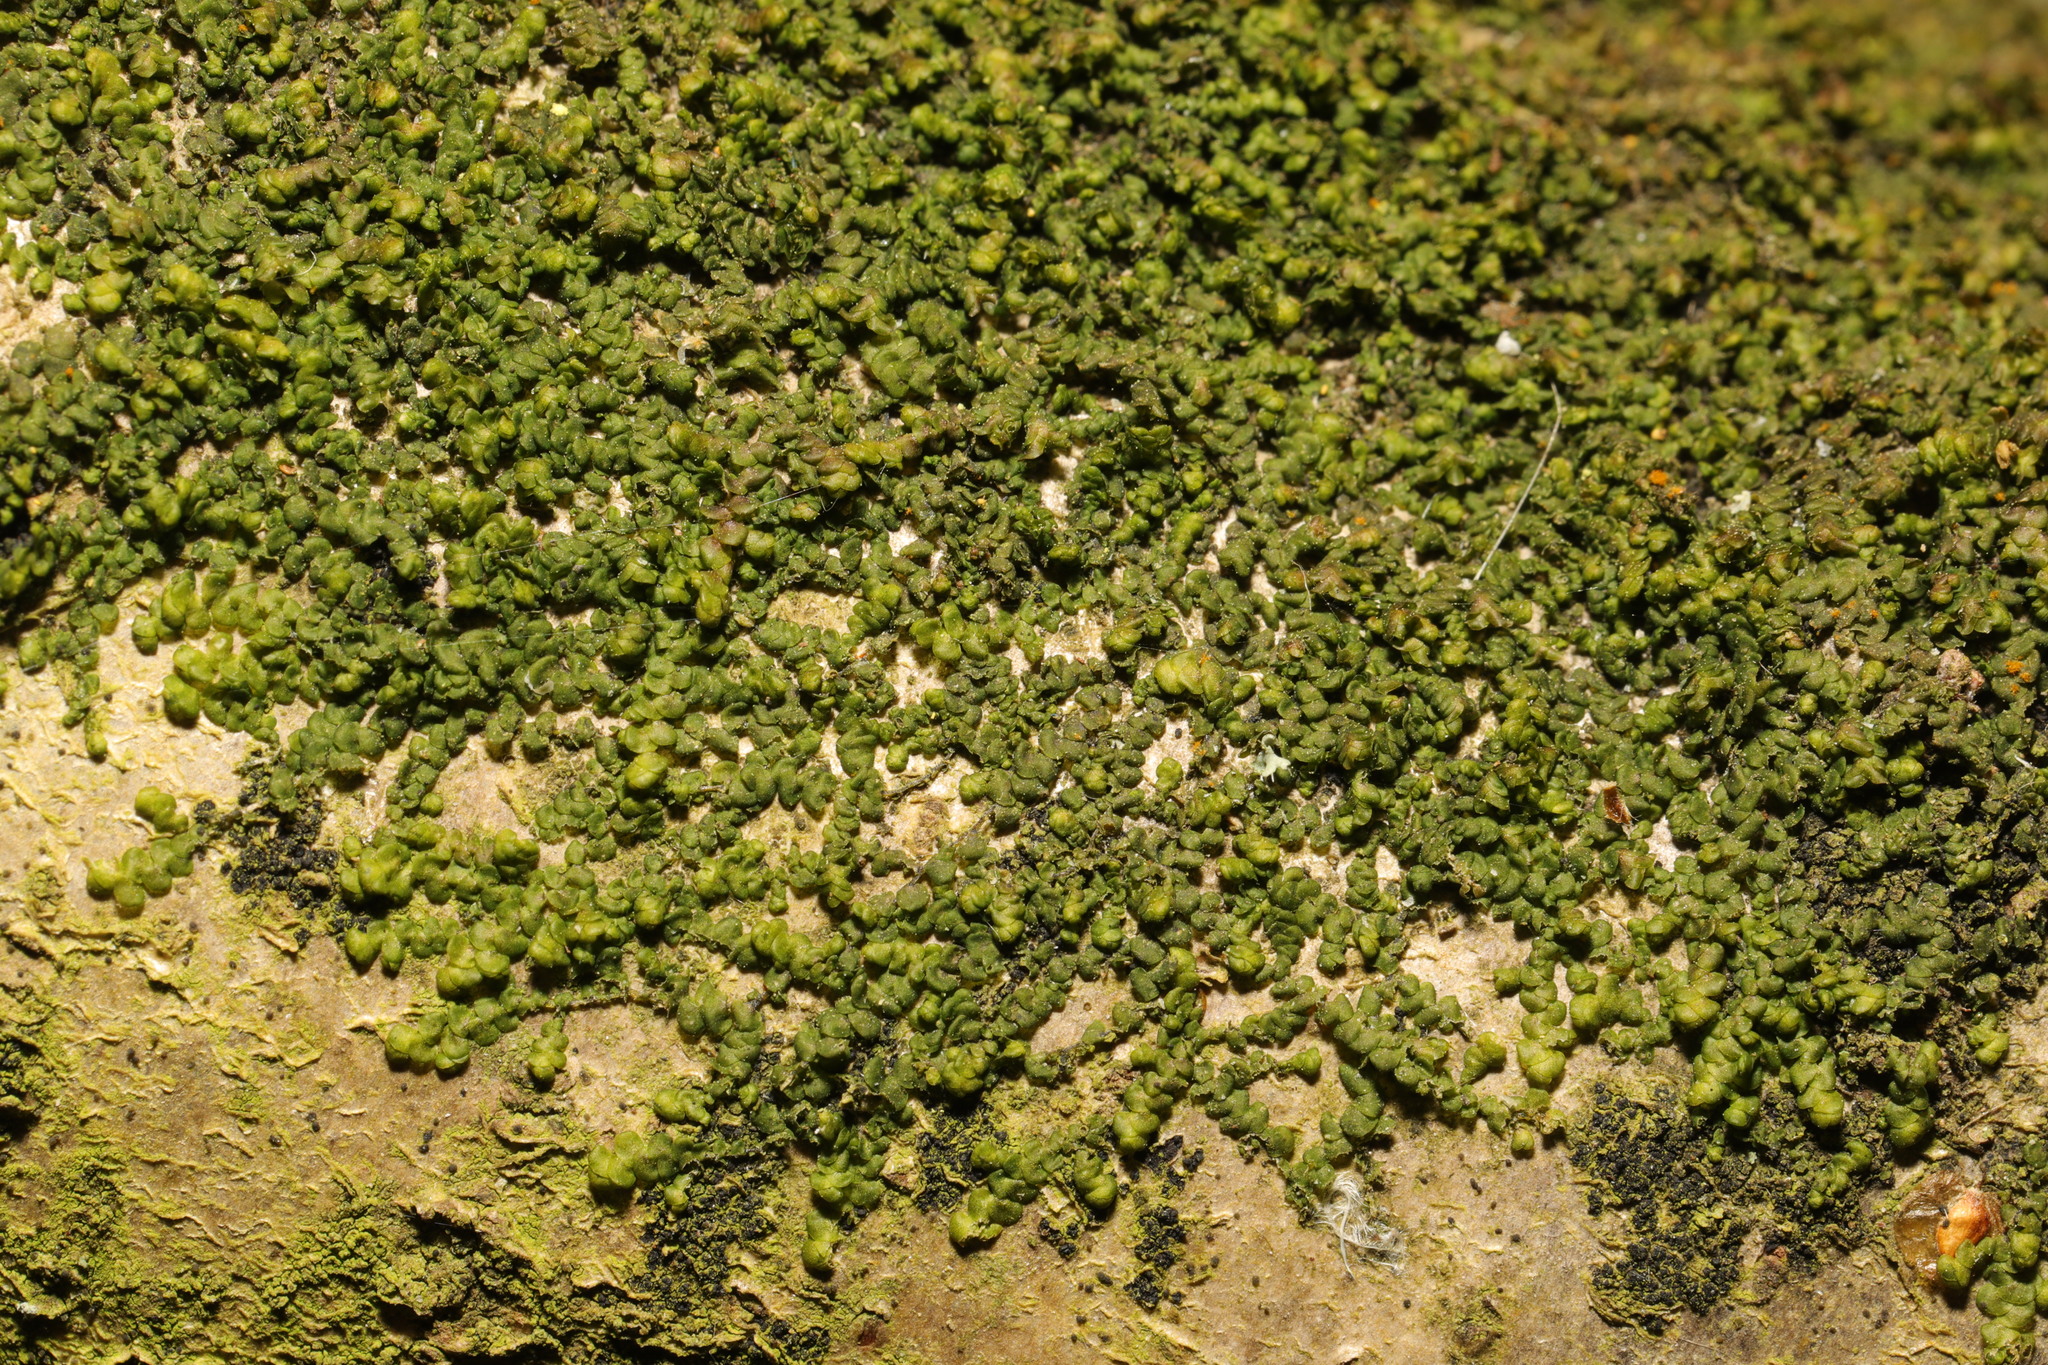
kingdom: Plantae
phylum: Marchantiophyta
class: Jungermanniopsida
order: Porellales
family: Frullaniaceae
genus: Frullania
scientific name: Frullania dilatata
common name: Dilated scalewort
